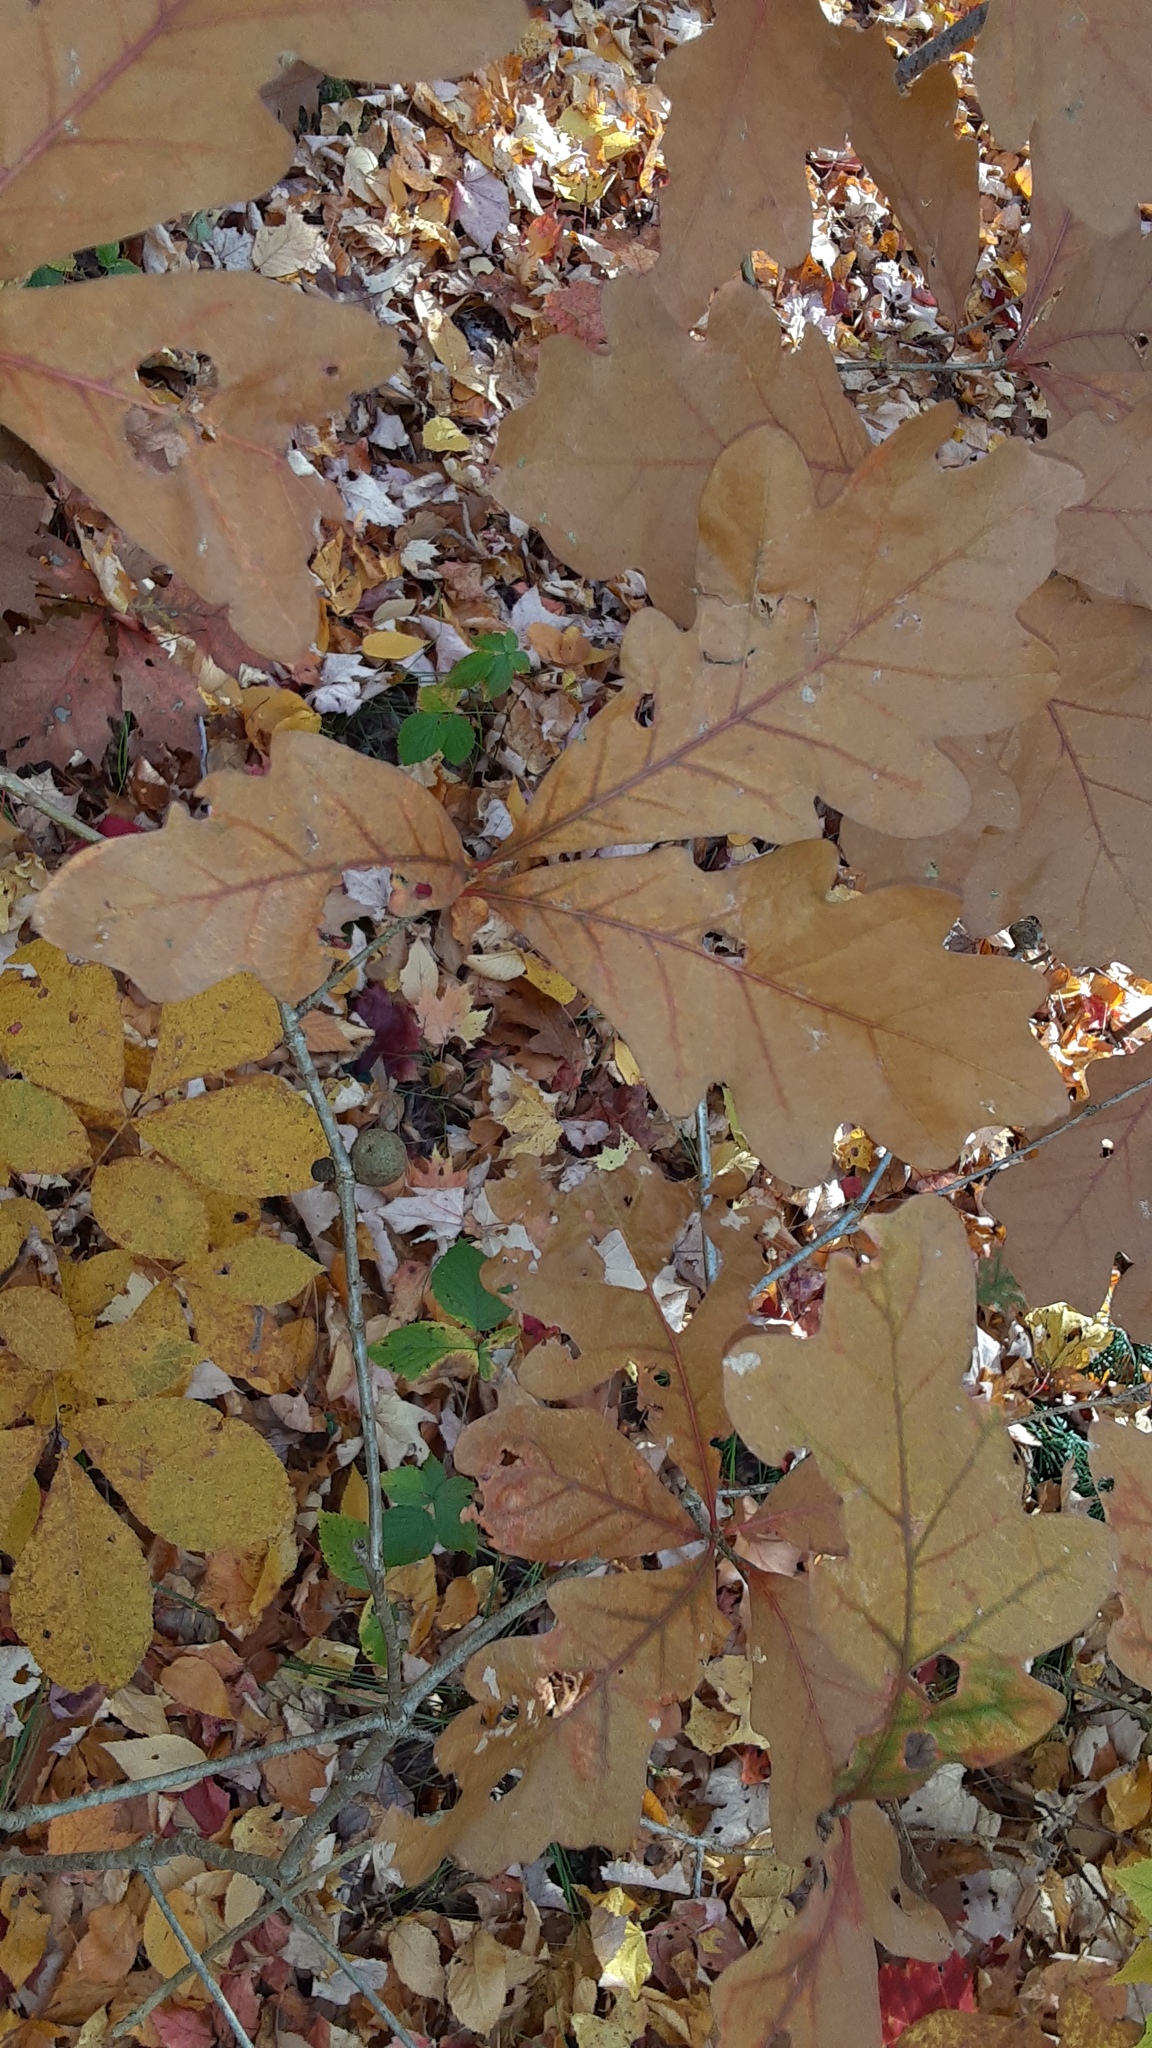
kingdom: Animalia
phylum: Arthropoda
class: Insecta
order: Hymenoptera
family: Cynipidae
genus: Disholcaspis
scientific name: Disholcaspis quercusglobulus
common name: Round bullet gall wasp
